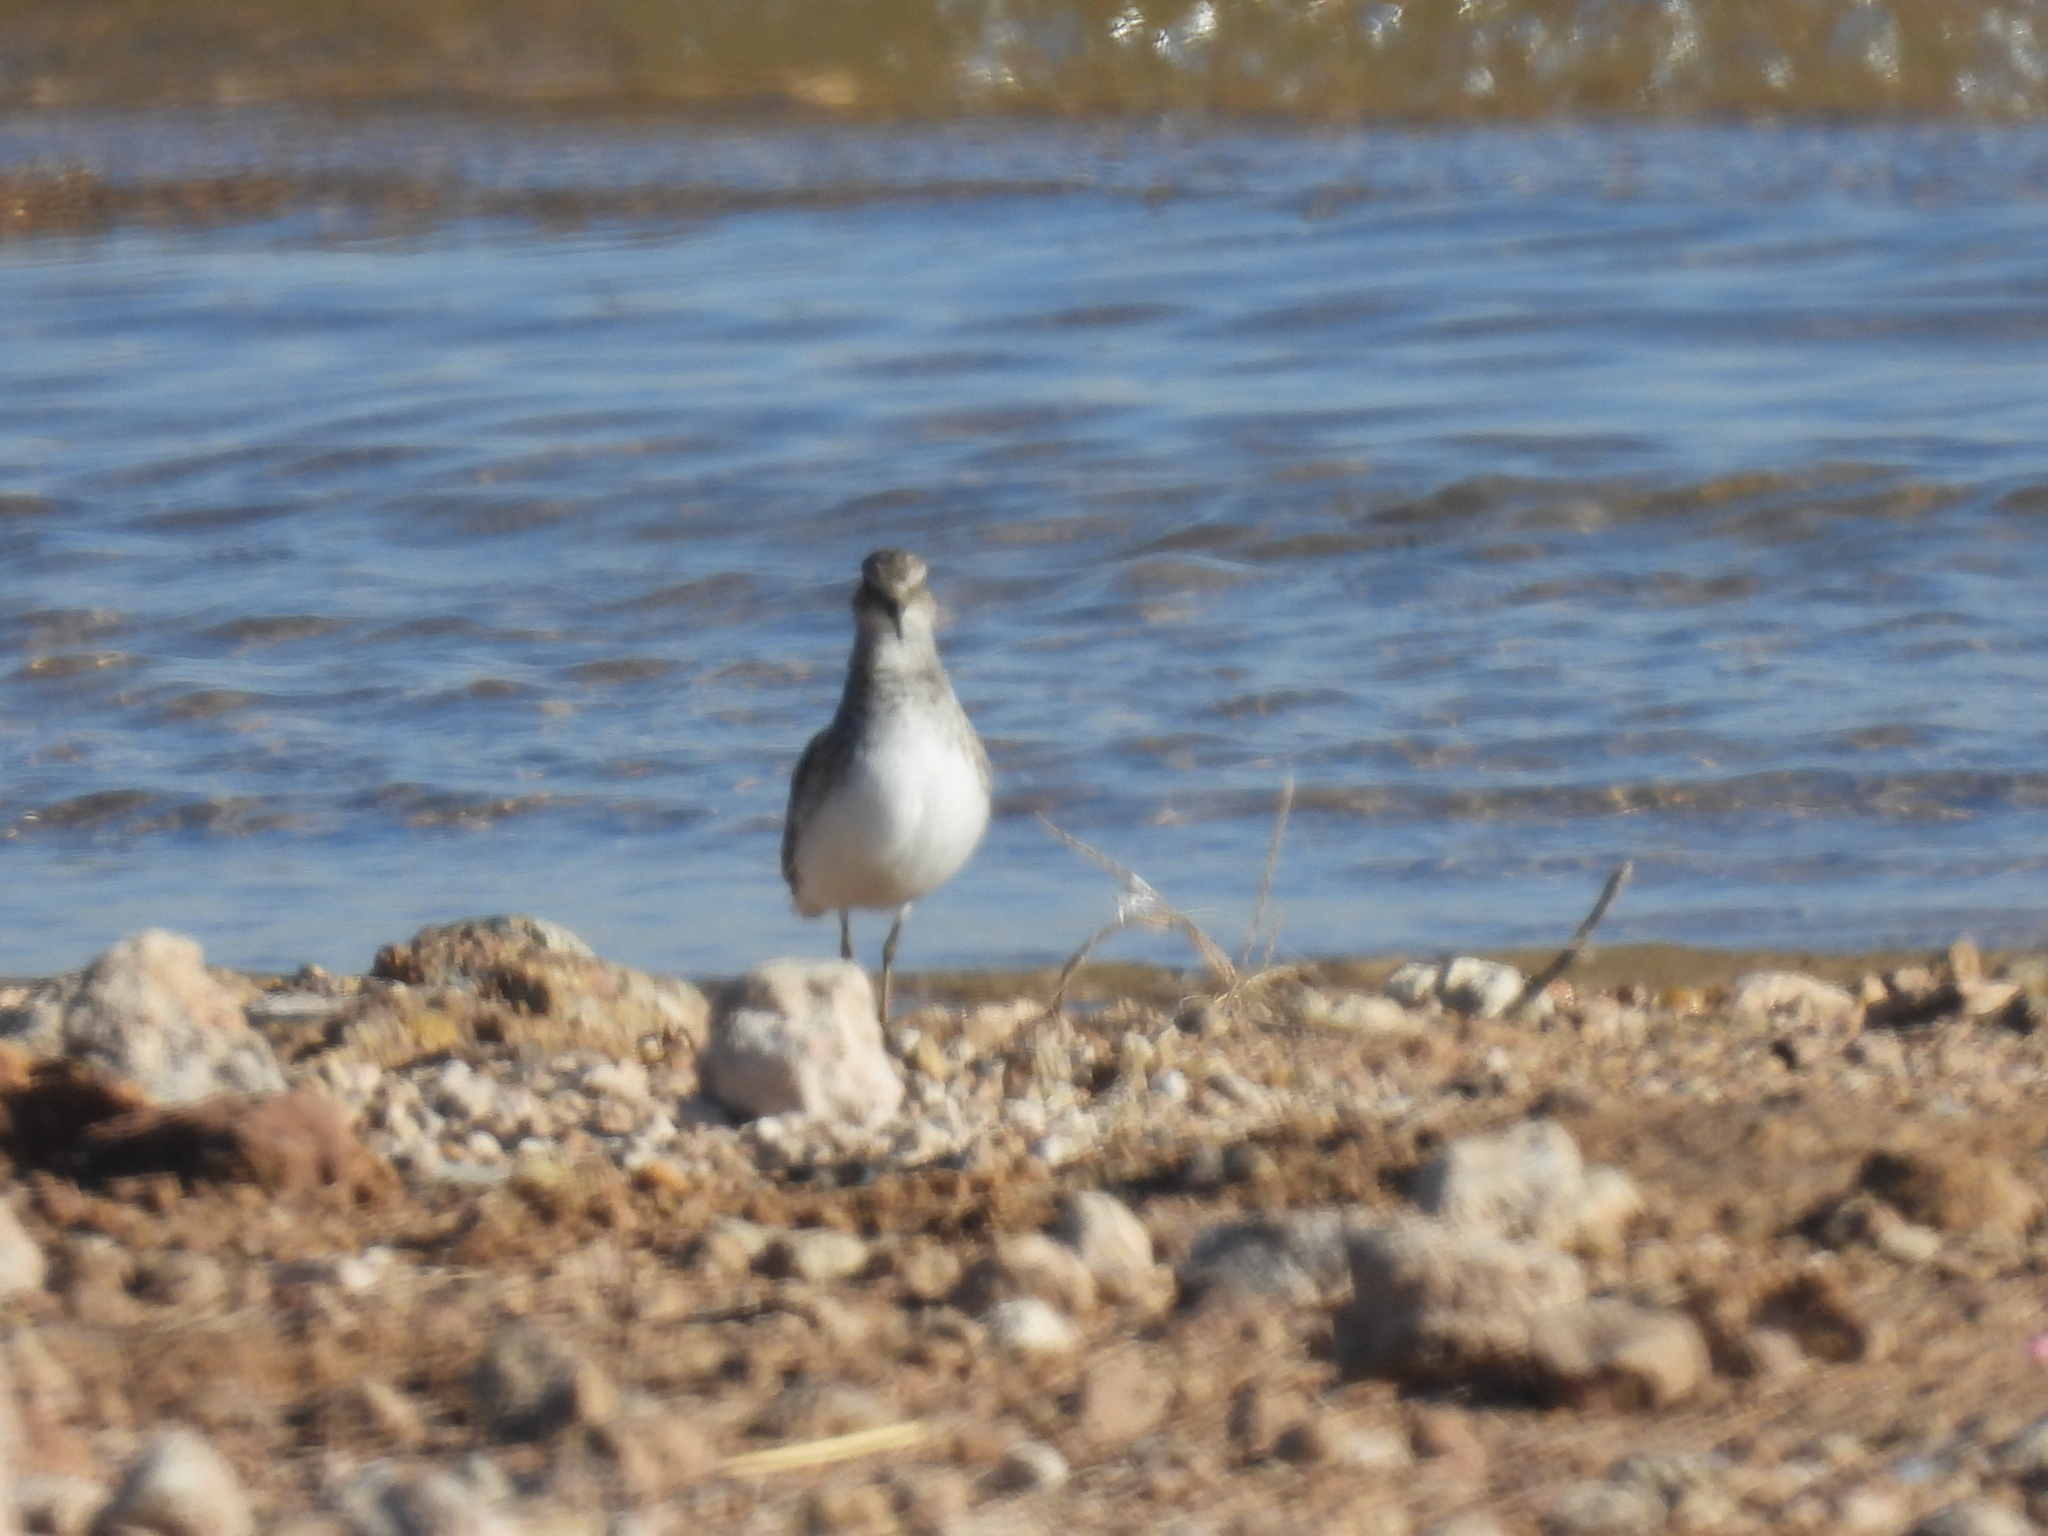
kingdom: Animalia
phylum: Chordata
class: Aves
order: Charadriiformes
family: Scolopacidae
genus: Calidris
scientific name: Calidris minutilla
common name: Least sandpiper
